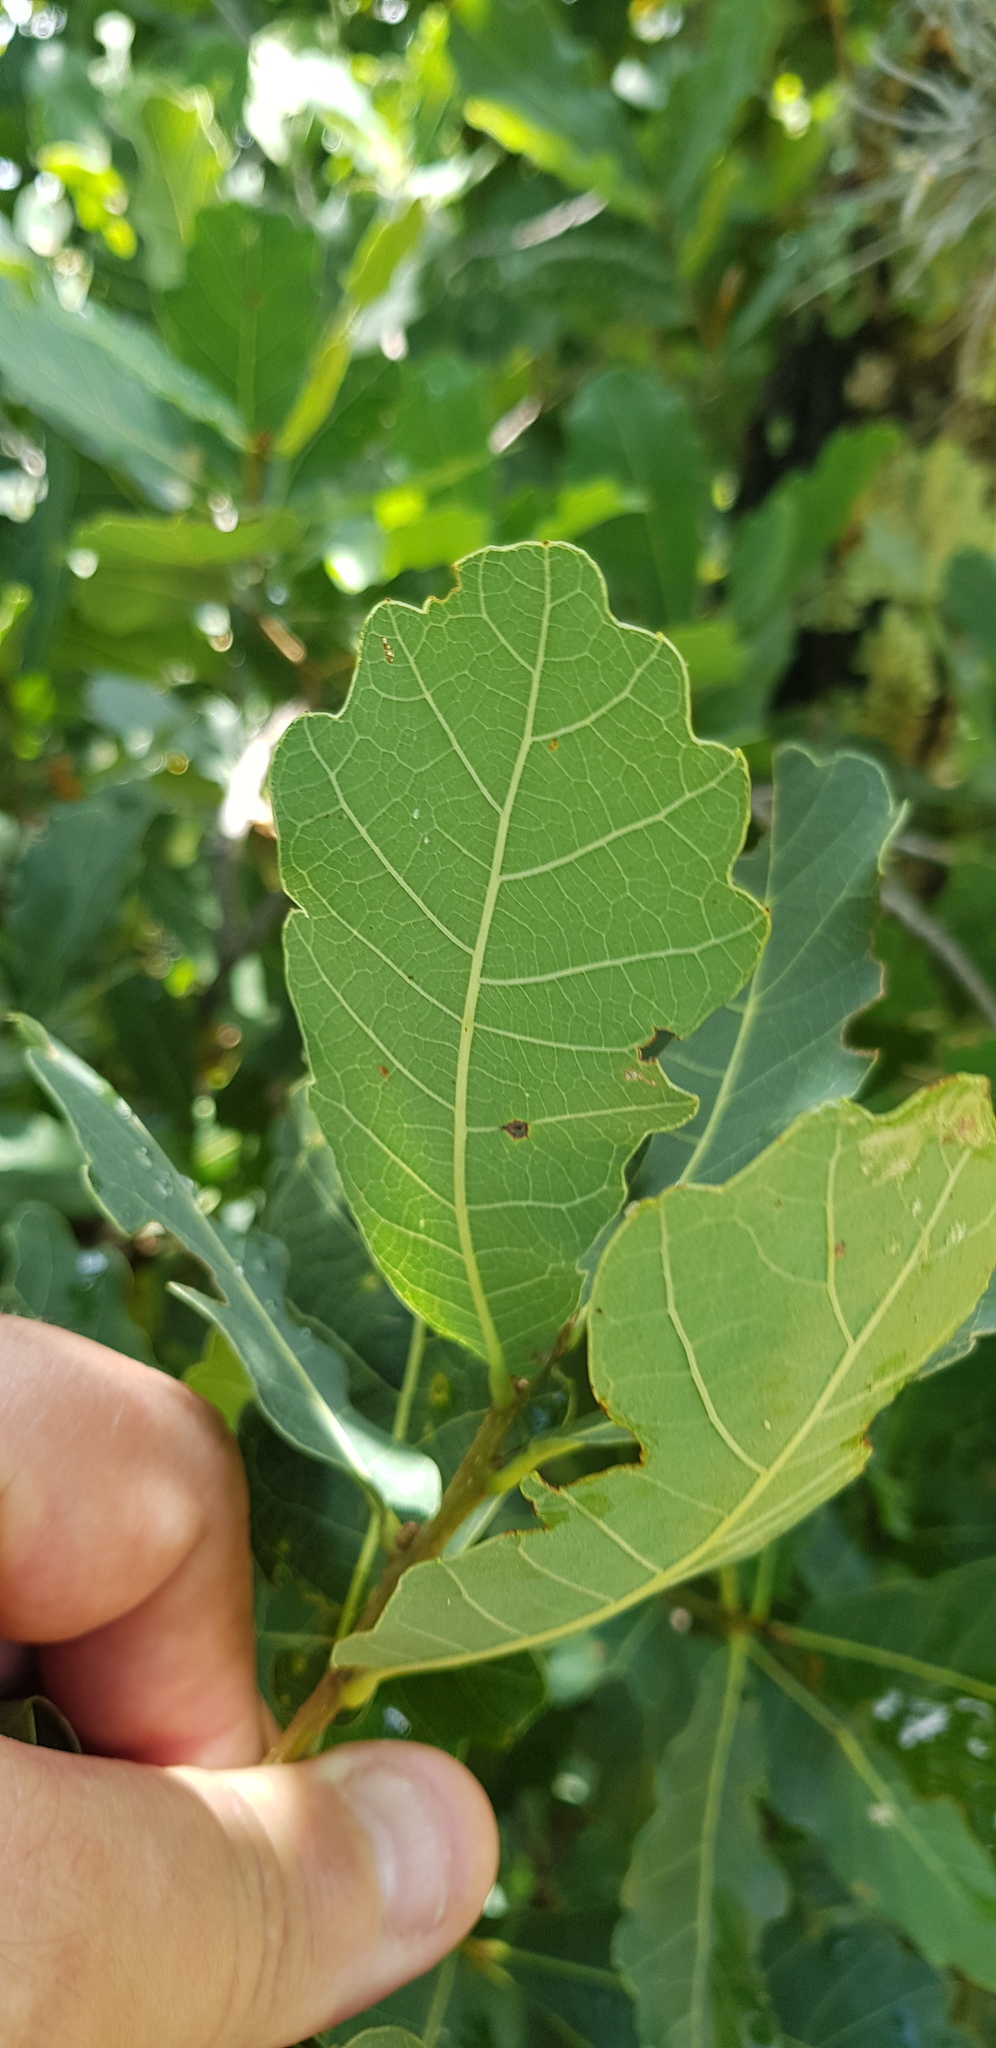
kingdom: Plantae
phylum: Tracheophyta
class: Magnoliopsida
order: Fagales
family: Fagaceae
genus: Quercus
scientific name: Quercus glaucoides
